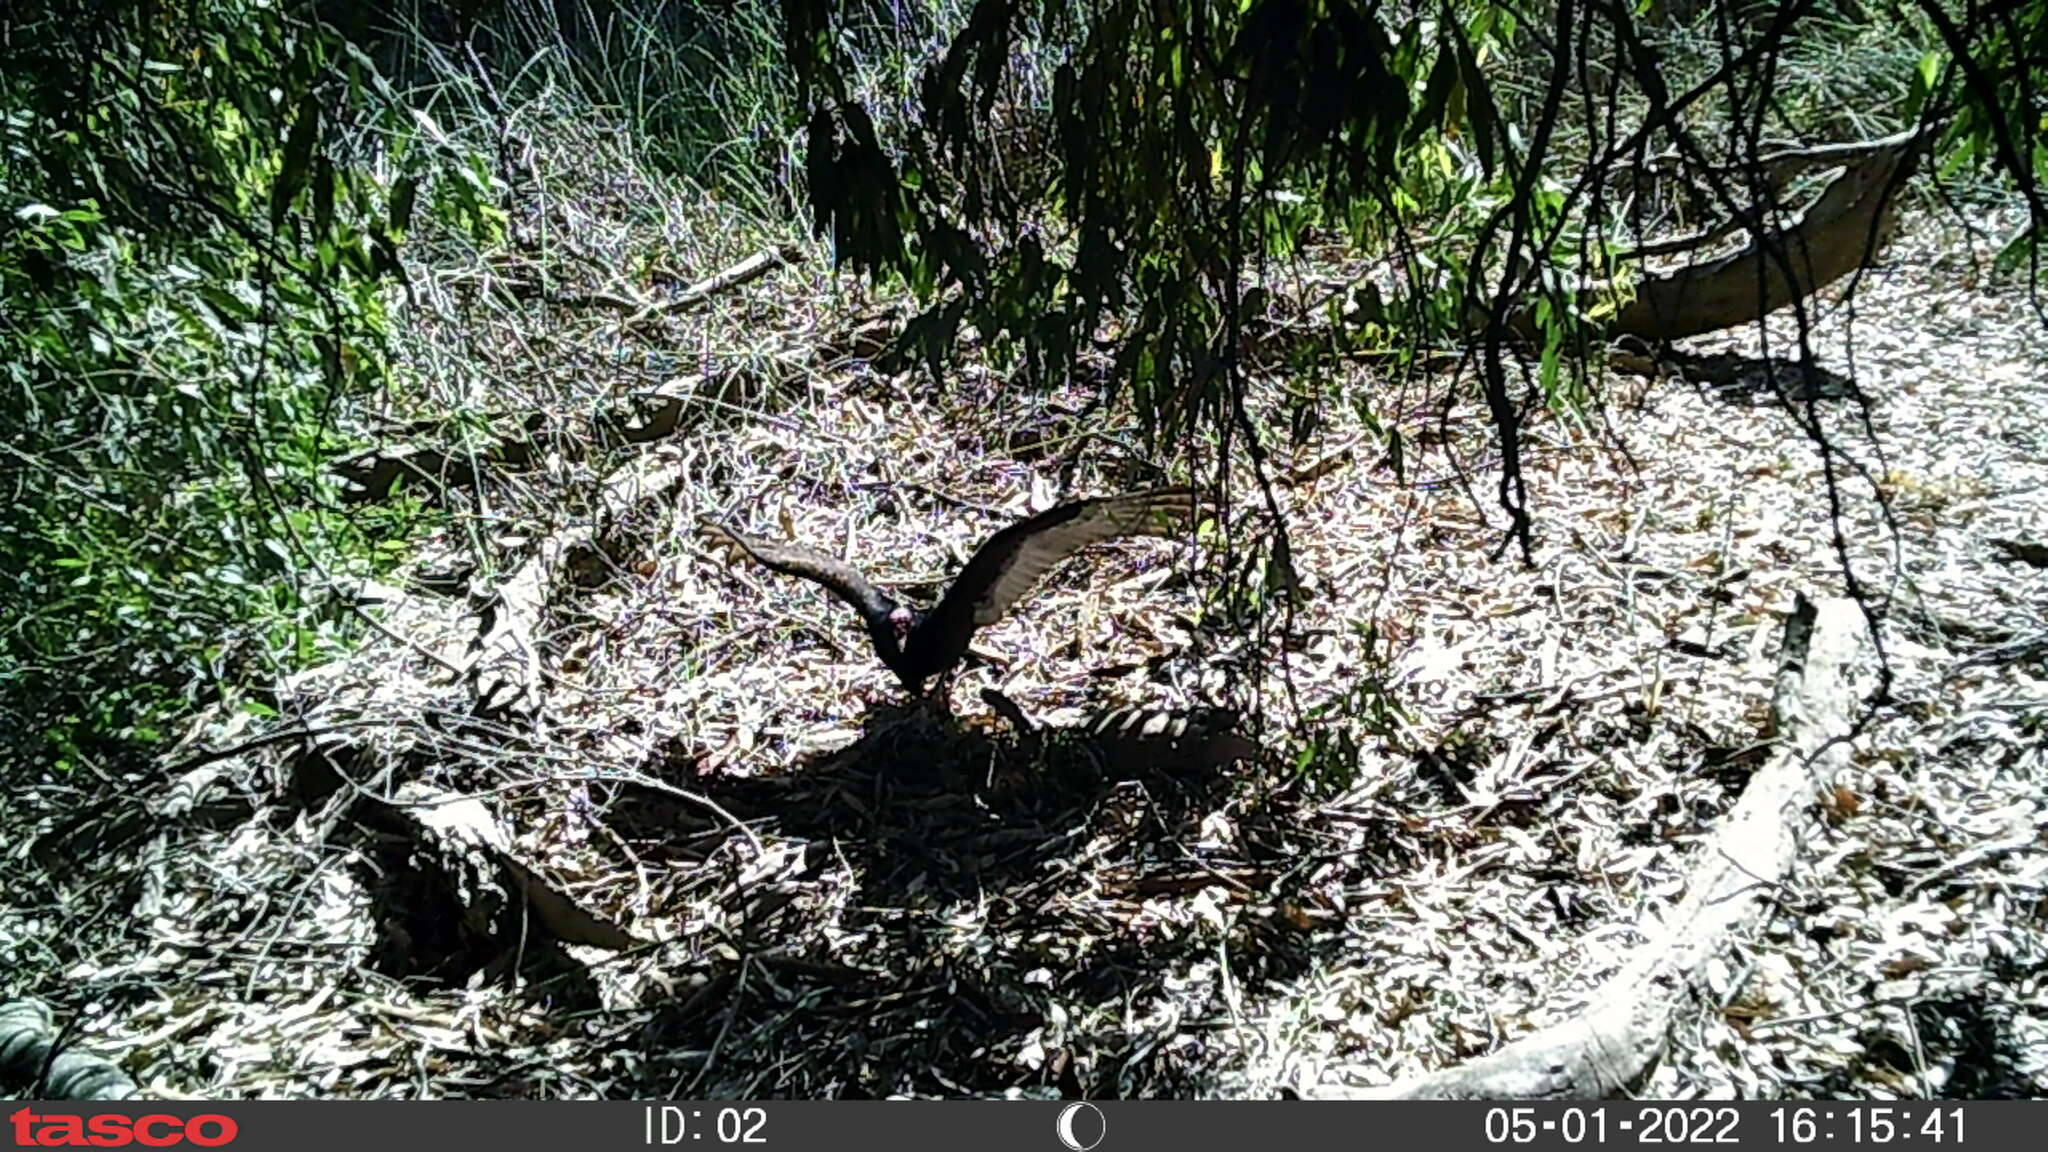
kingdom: Animalia
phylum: Chordata
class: Aves
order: Accipitriformes
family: Cathartidae
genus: Cathartes
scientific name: Cathartes aura
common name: Turkey vulture
